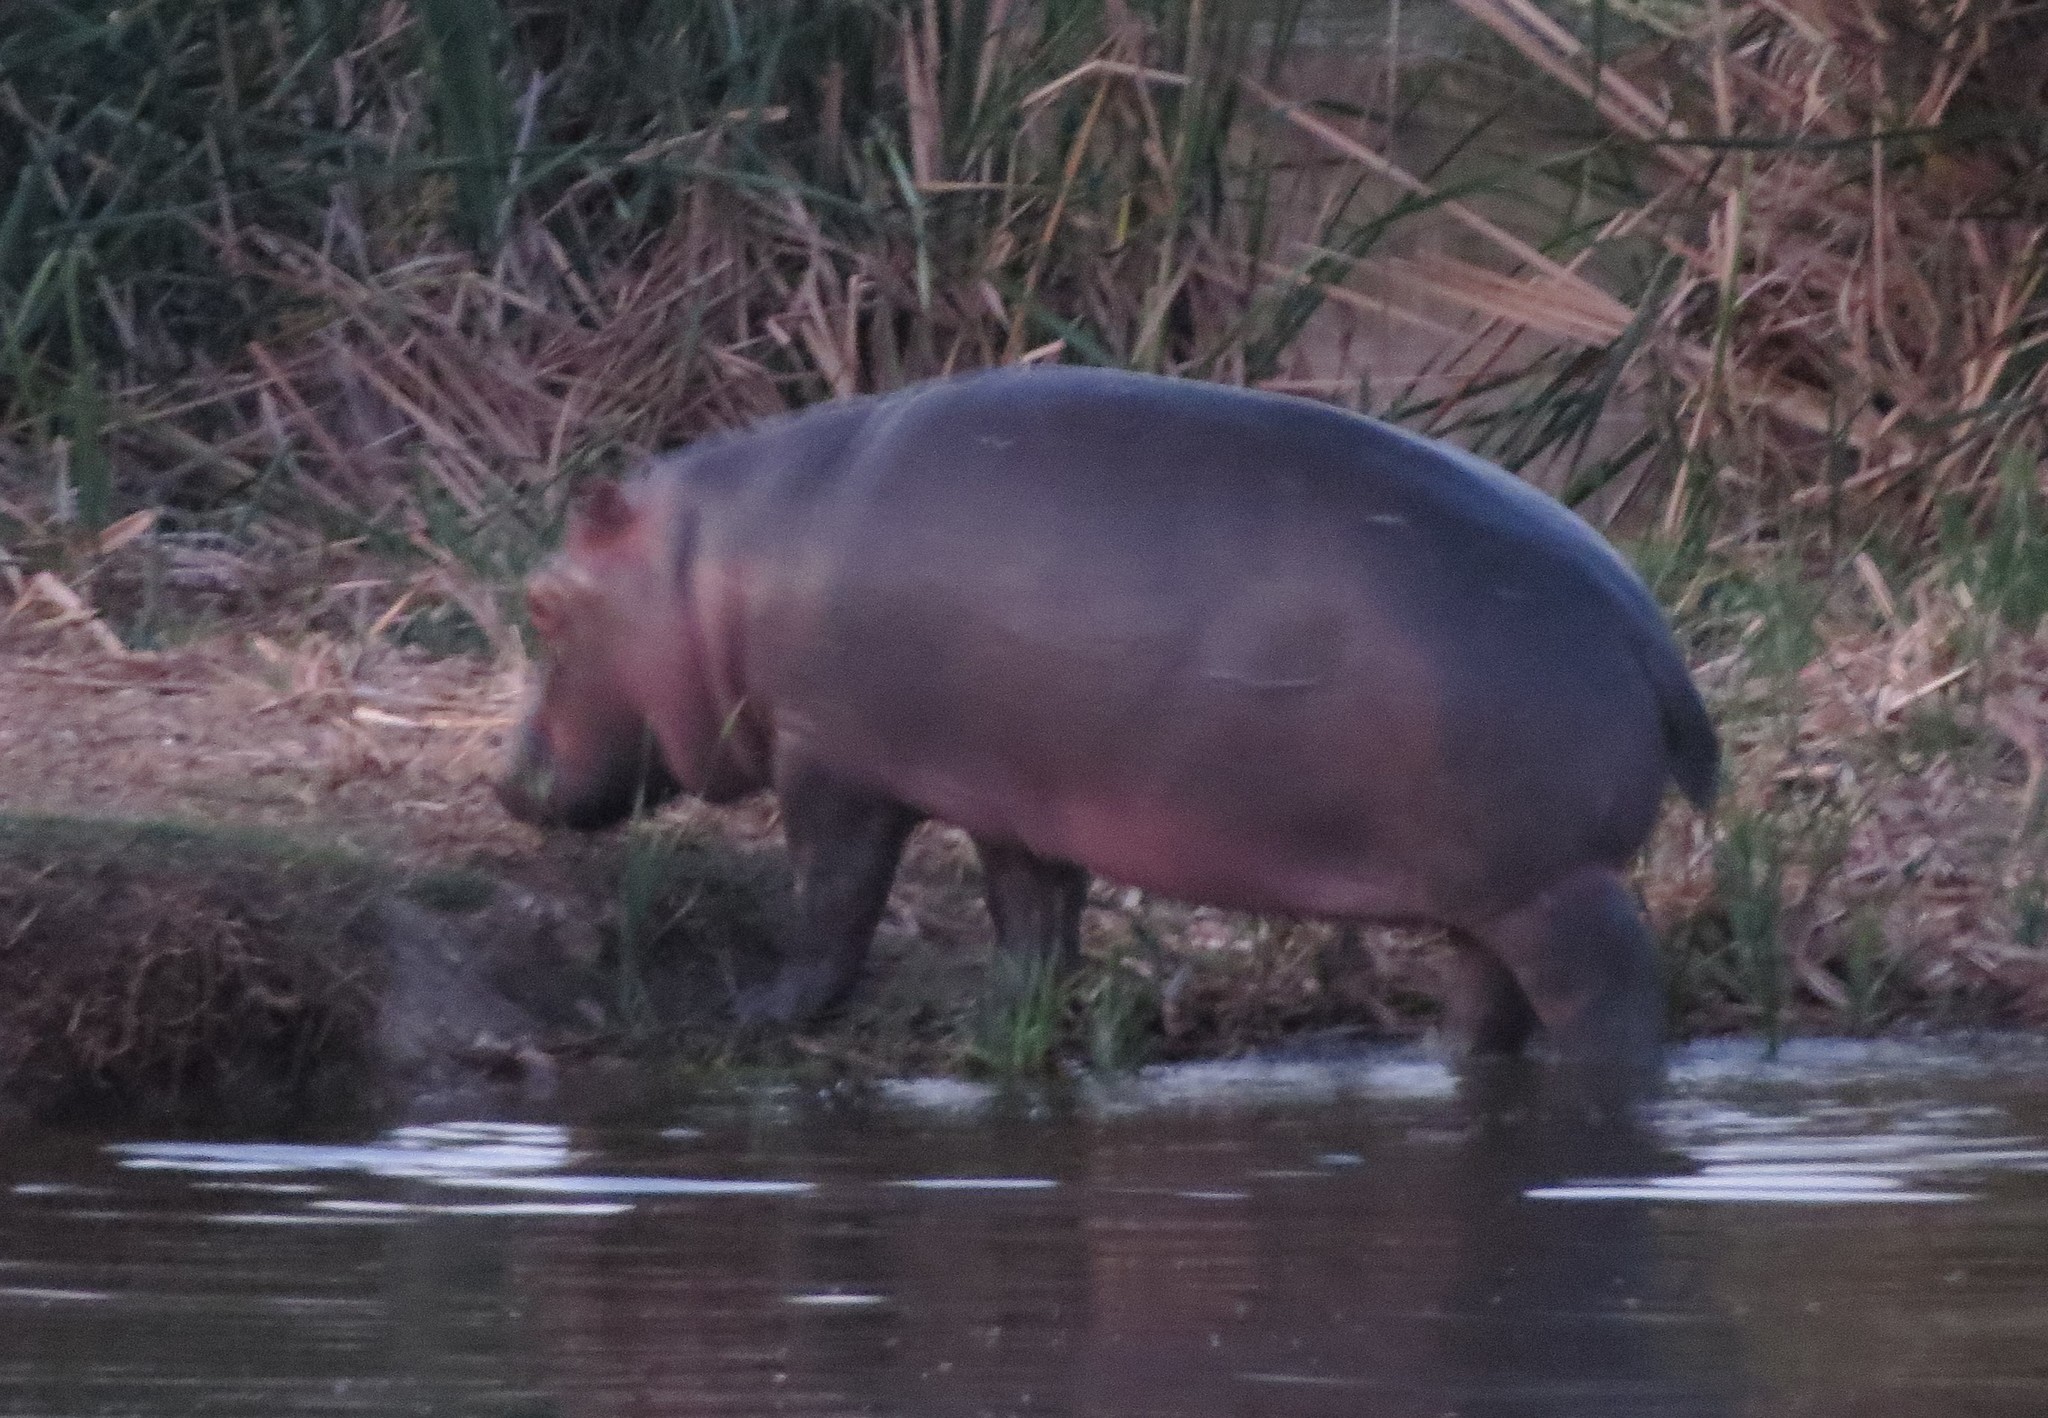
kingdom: Animalia
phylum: Chordata
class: Mammalia
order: Artiodactyla
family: Hippopotamidae
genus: Hippopotamus
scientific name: Hippopotamus amphibius
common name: Common hippopotamus
